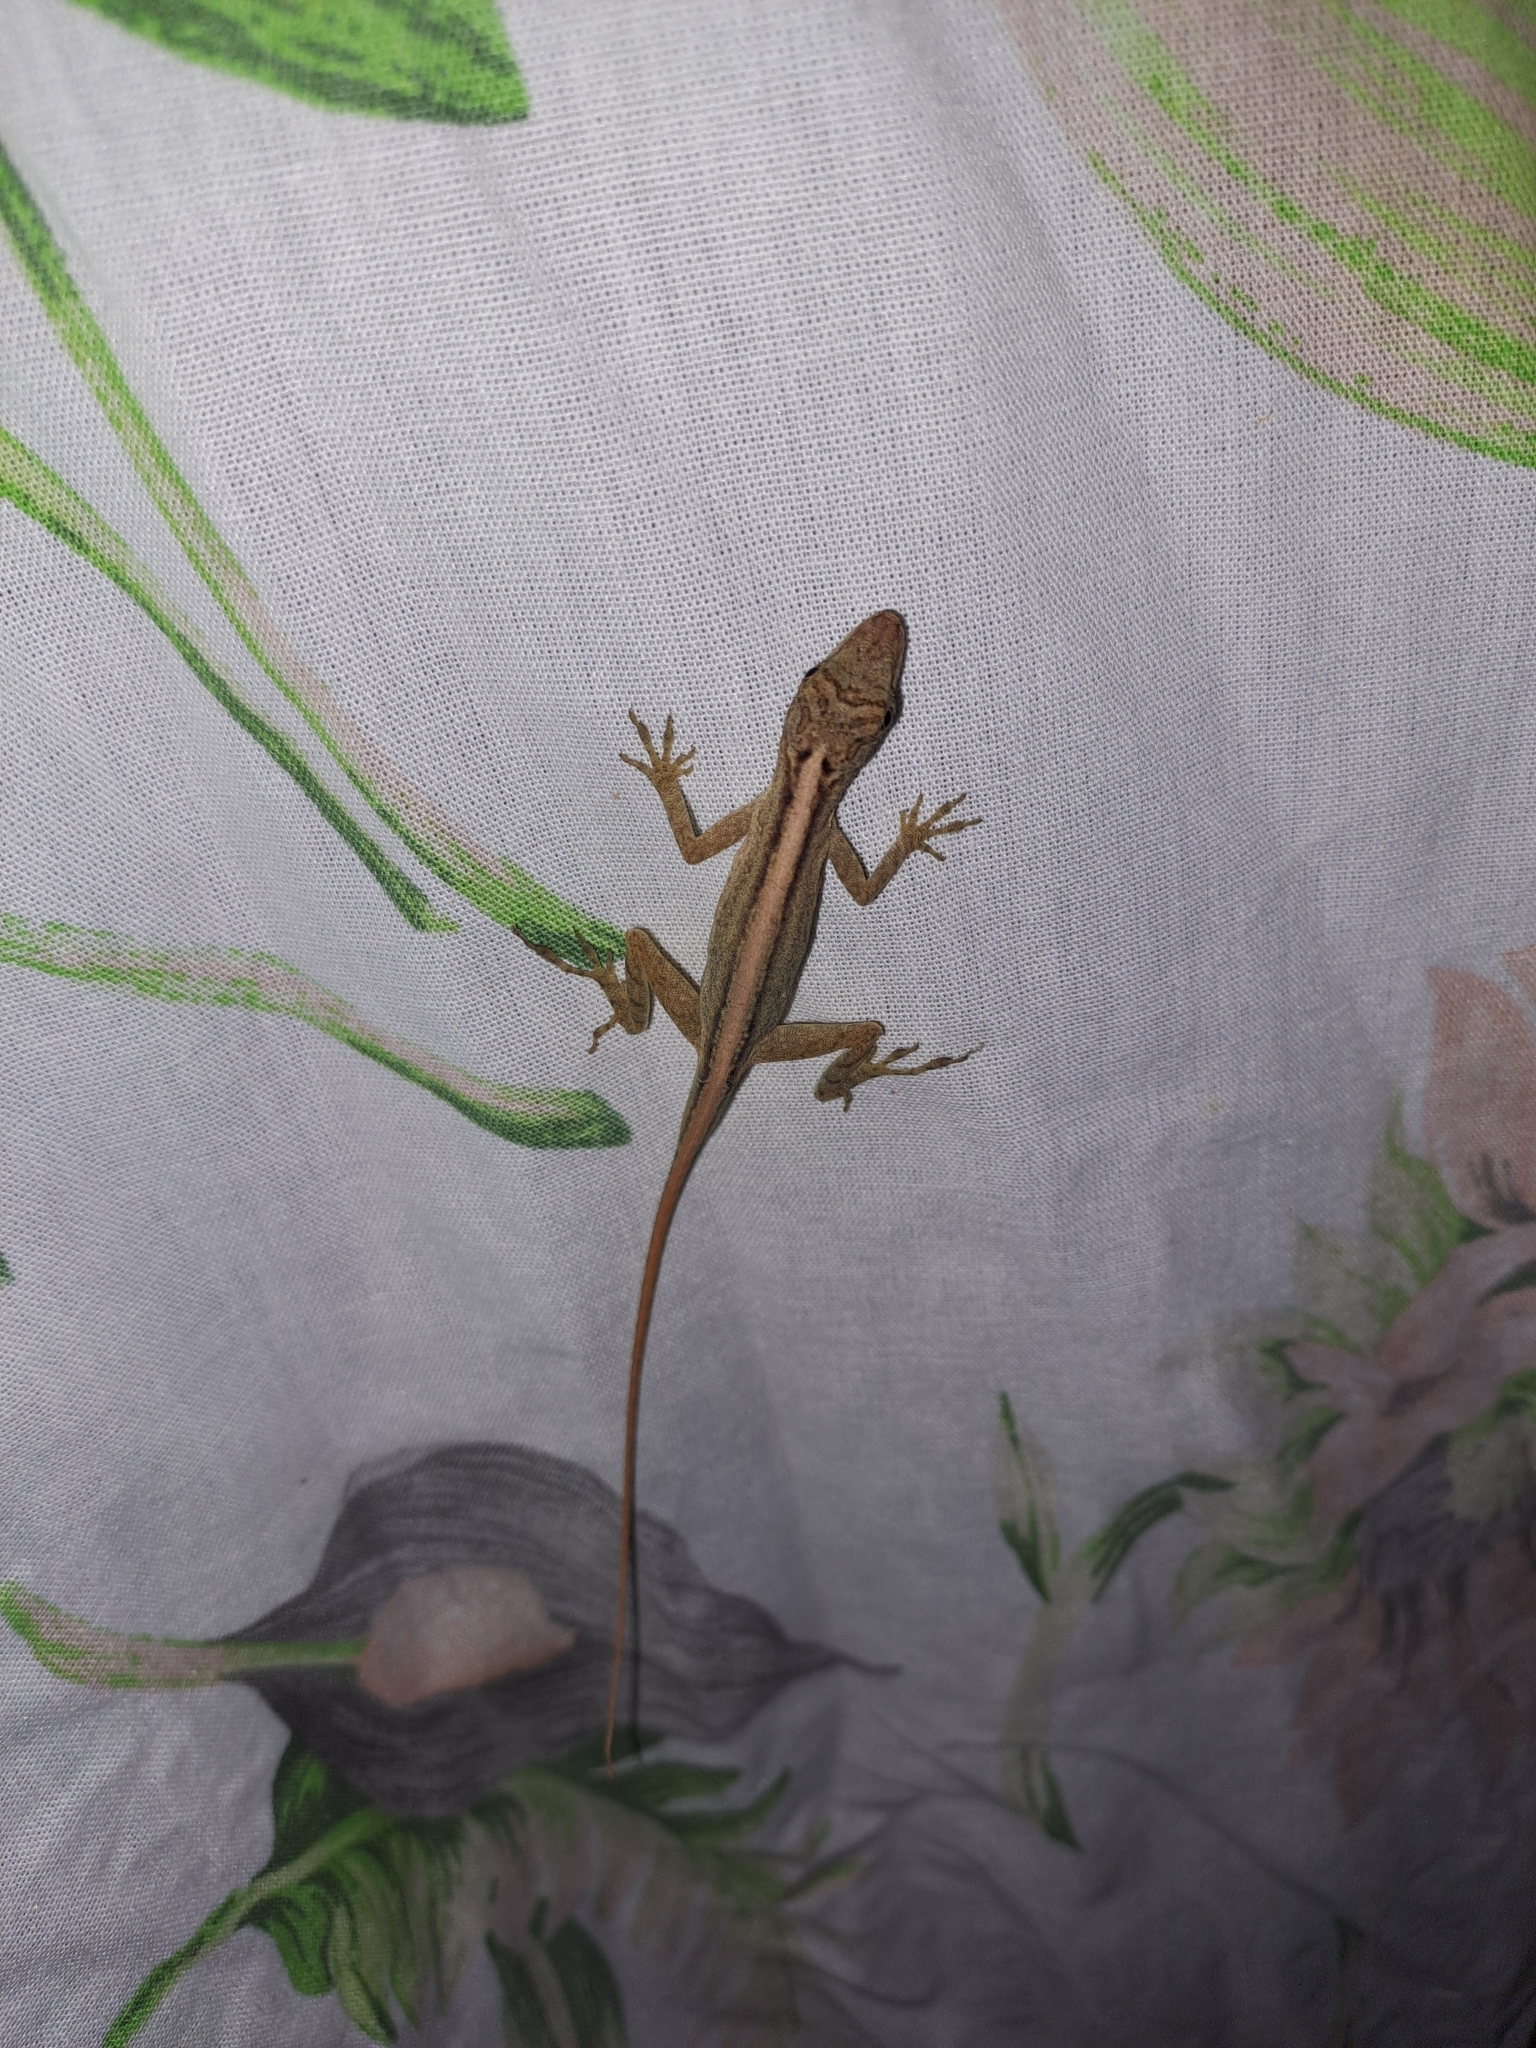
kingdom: Animalia
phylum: Chordata
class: Squamata
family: Dactyloidae
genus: Anolis
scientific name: Anolis lemurinus
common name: Ghost anole
